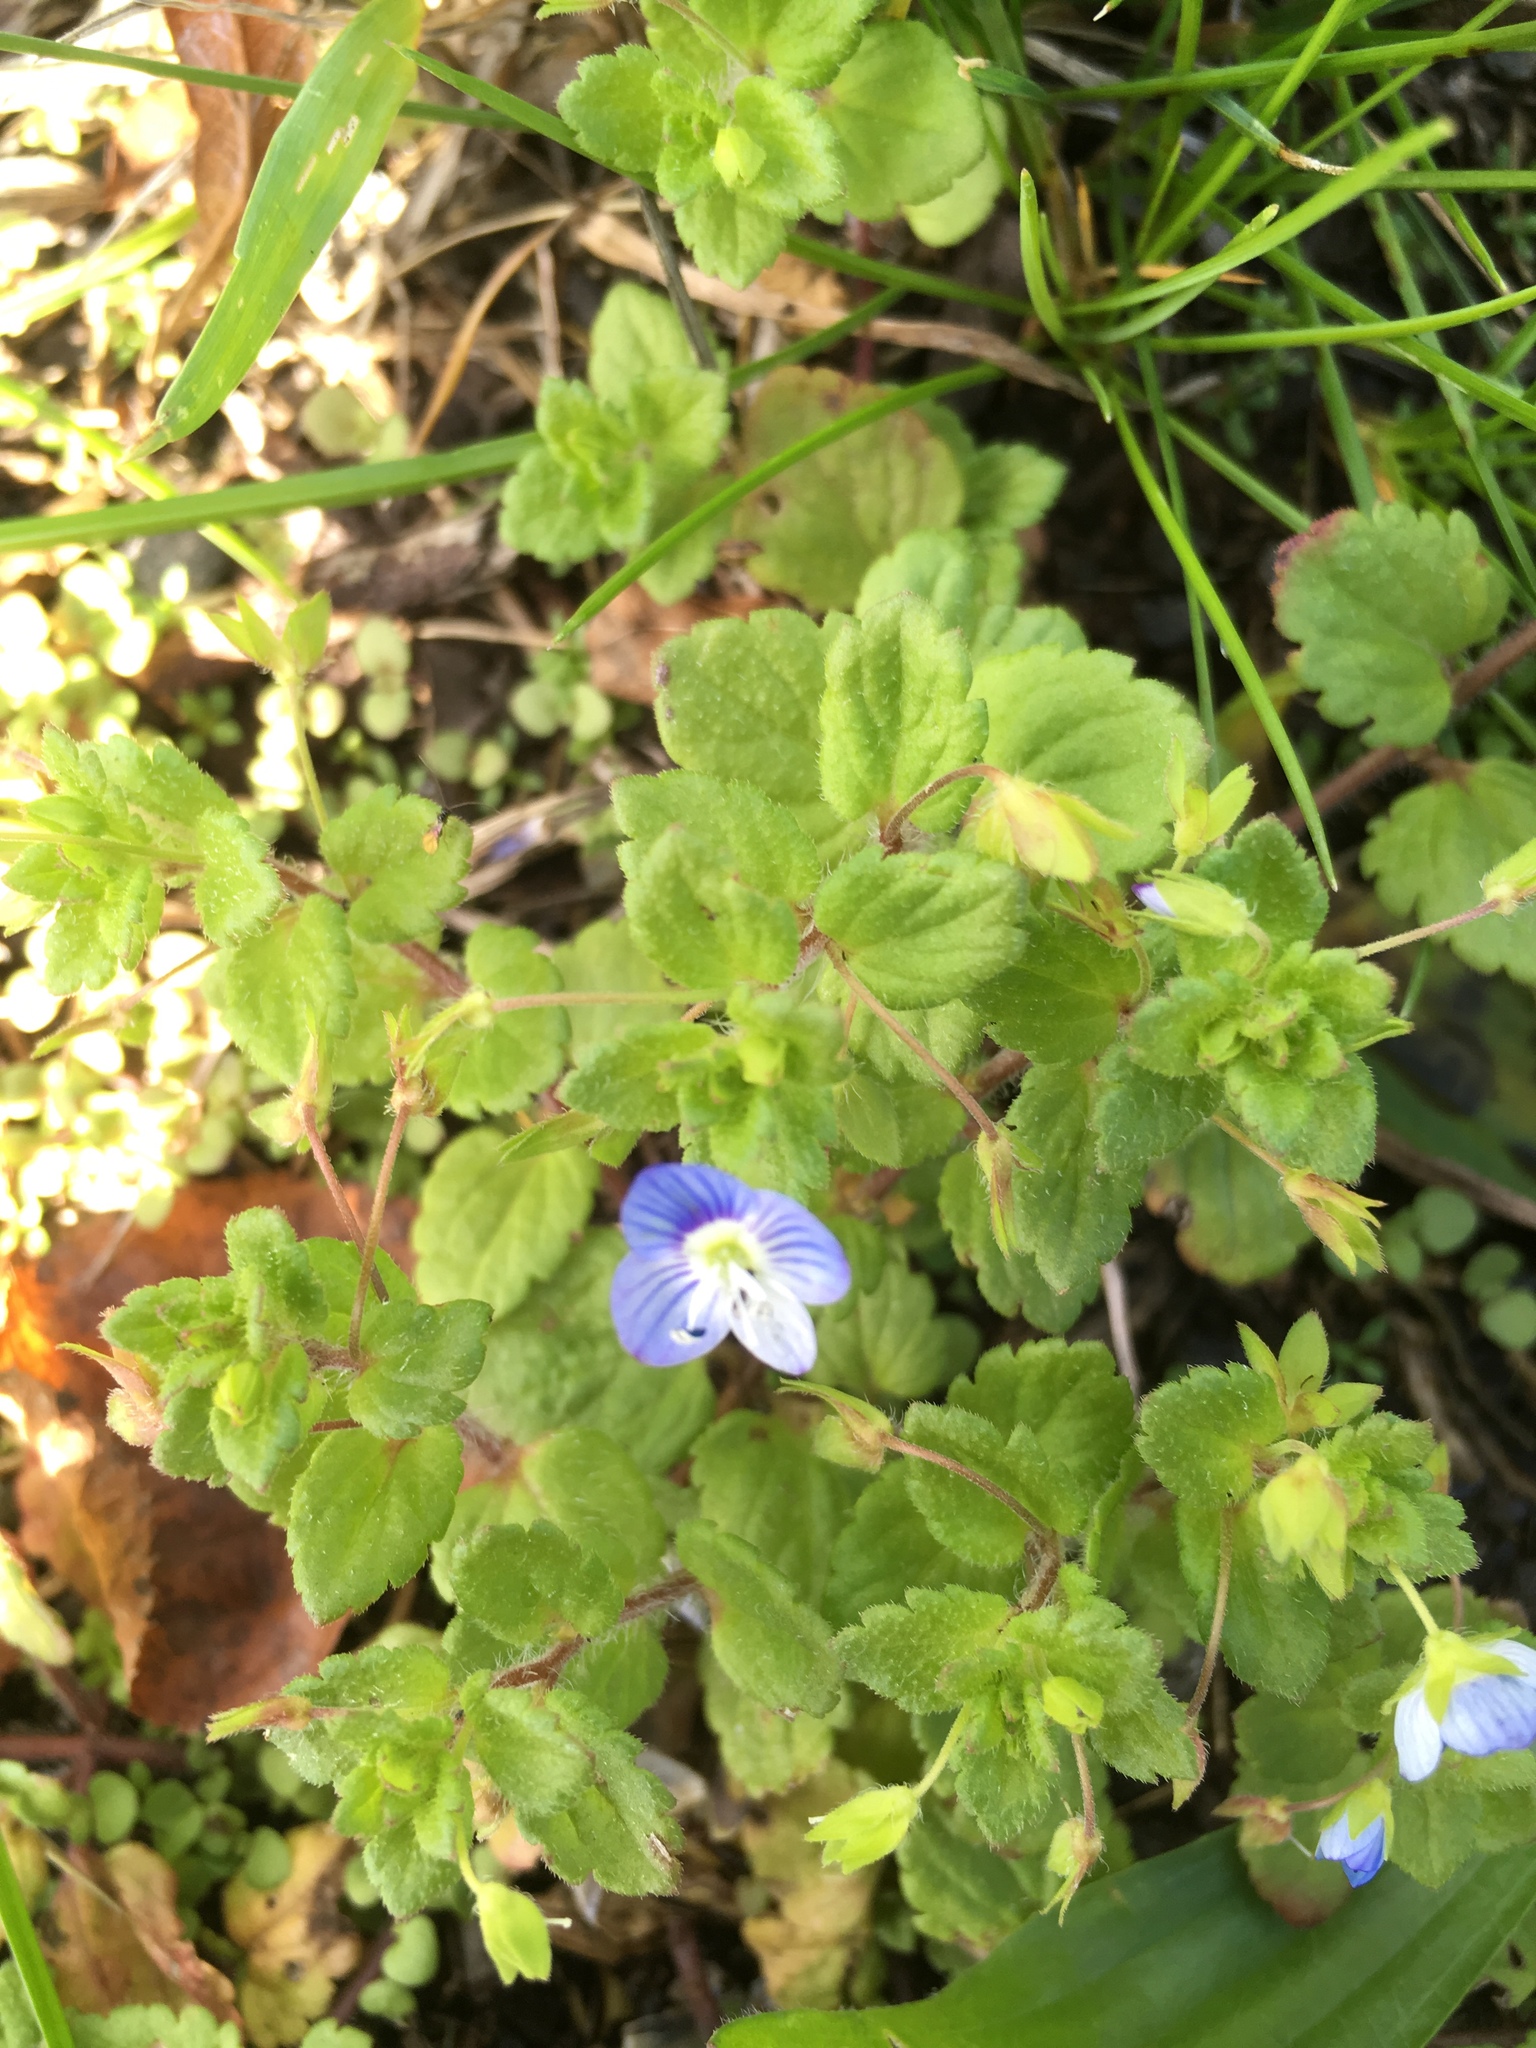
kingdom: Plantae
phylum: Tracheophyta
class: Magnoliopsida
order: Lamiales
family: Plantaginaceae
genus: Veronica
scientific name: Veronica persica
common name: Common field-speedwell
